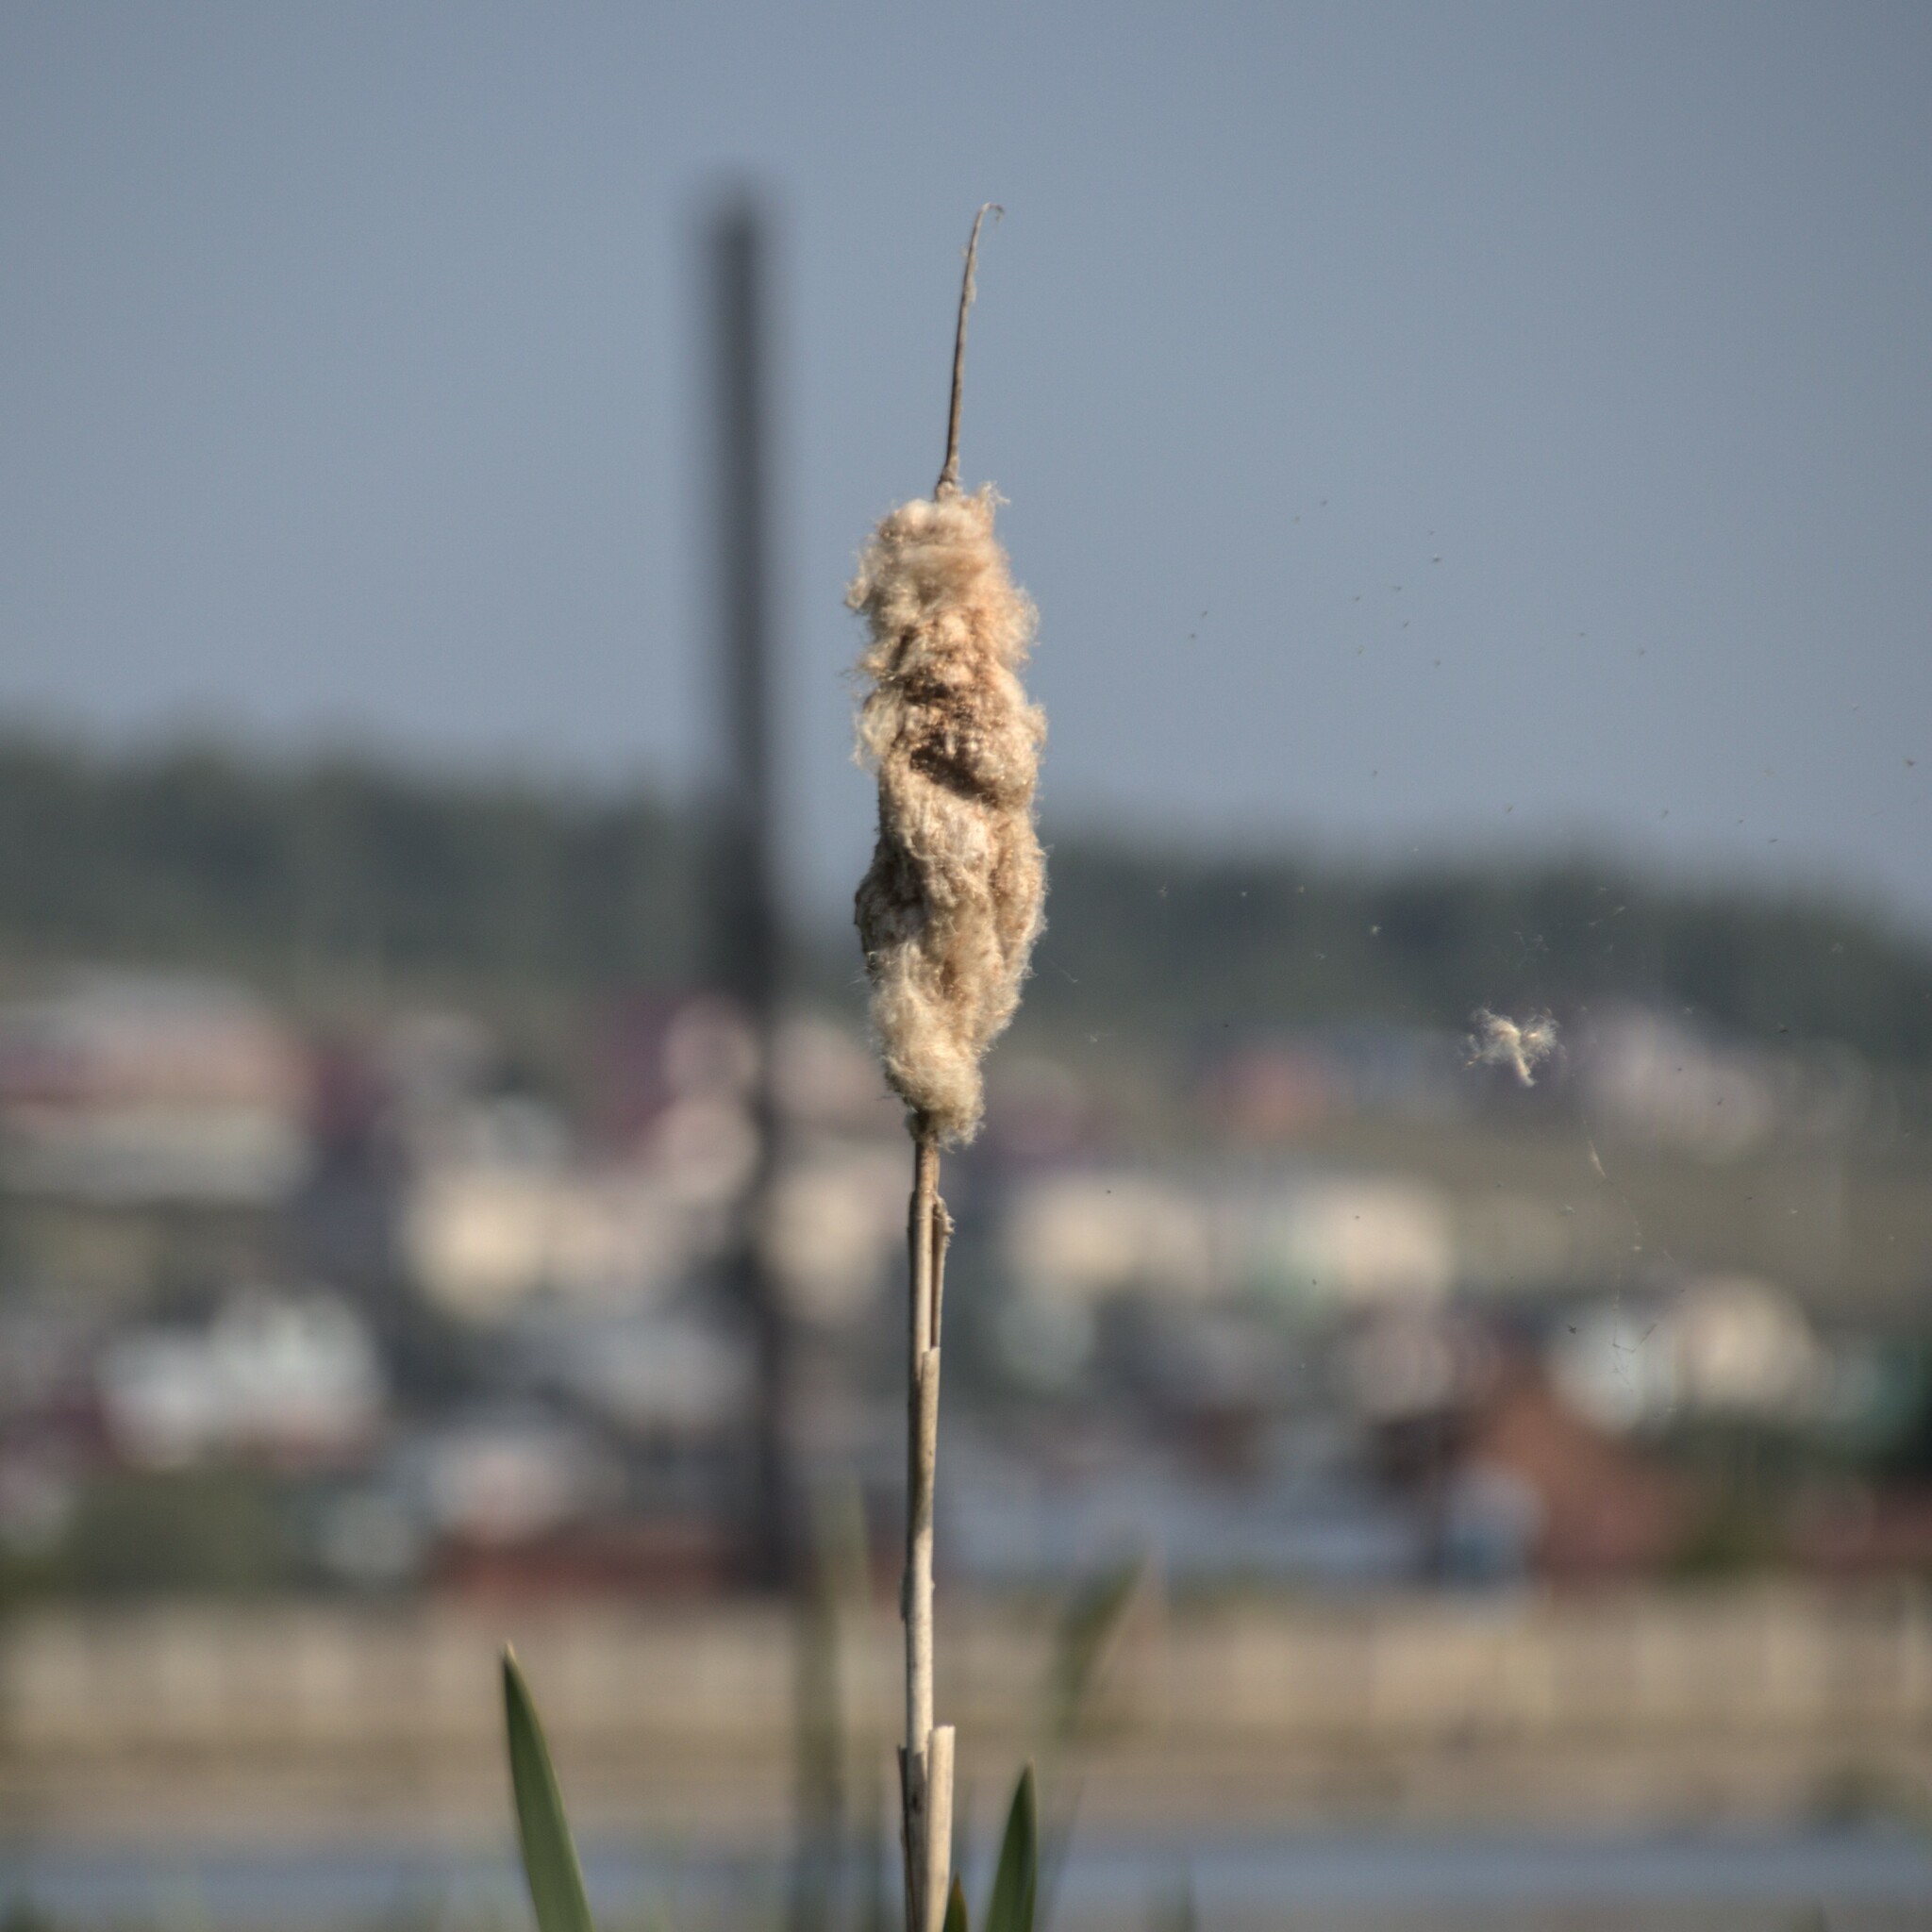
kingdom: Plantae
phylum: Tracheophyta
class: Liliopsida
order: Poales
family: Typhaceae
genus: Typha
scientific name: Typha latifolia
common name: Broadleaf cattail
